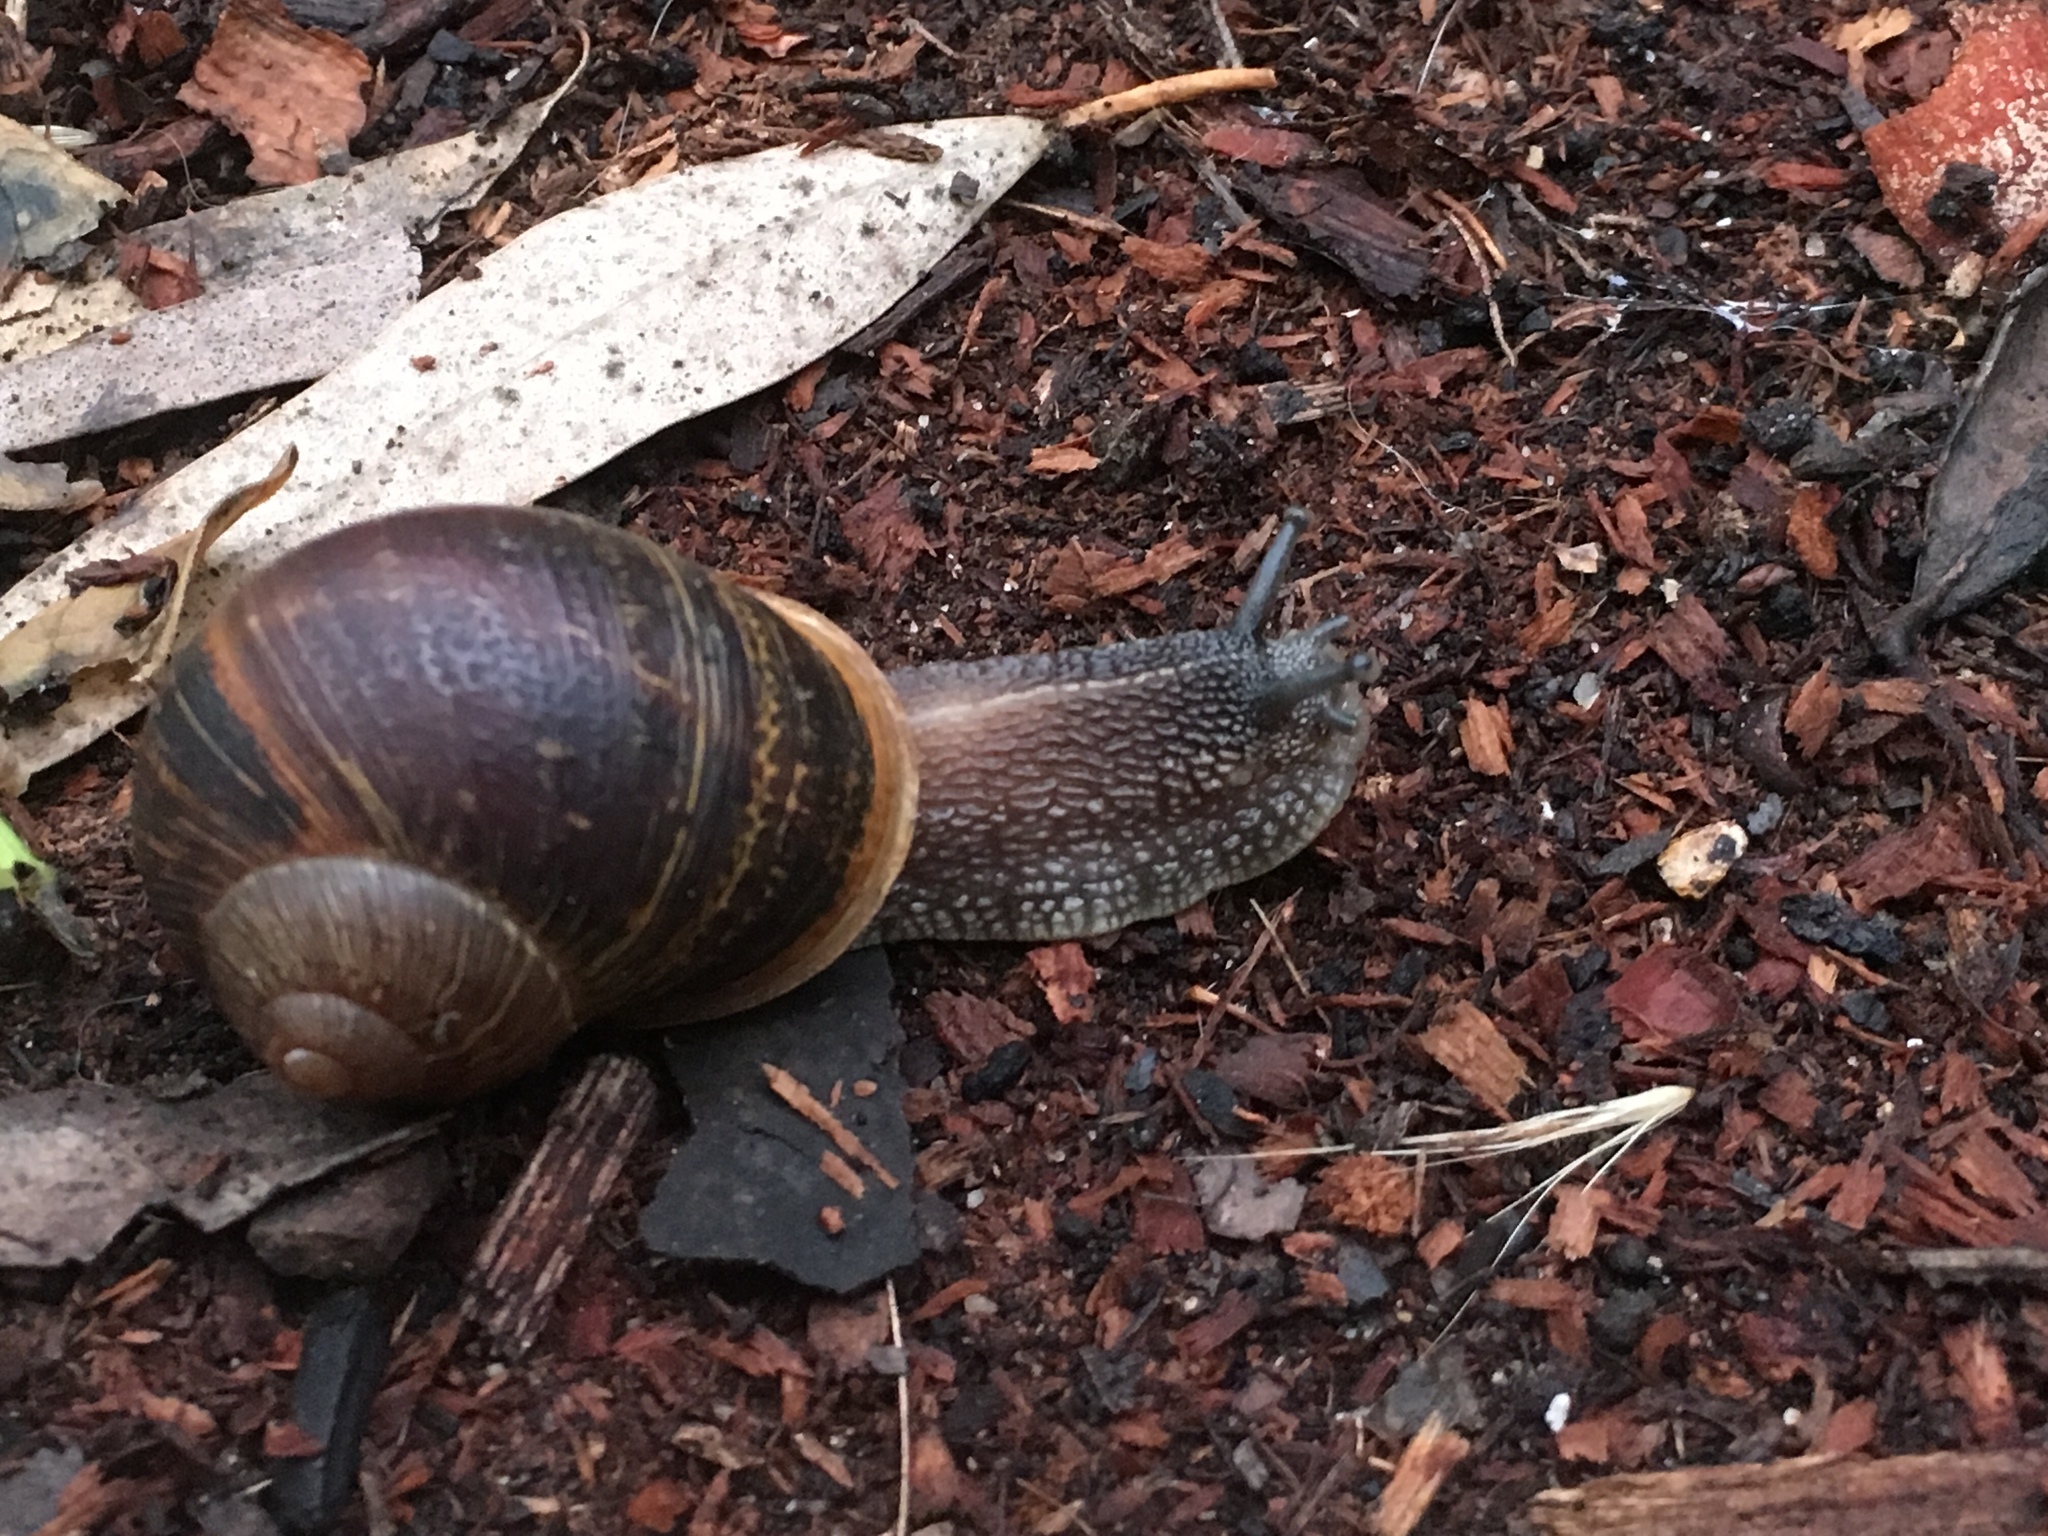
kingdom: Animalia
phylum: Mollusca
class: Gastropoda
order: Stylommatophora
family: Helicidae
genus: Cornu
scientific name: Cornu aspersum
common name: Brown garden snail
